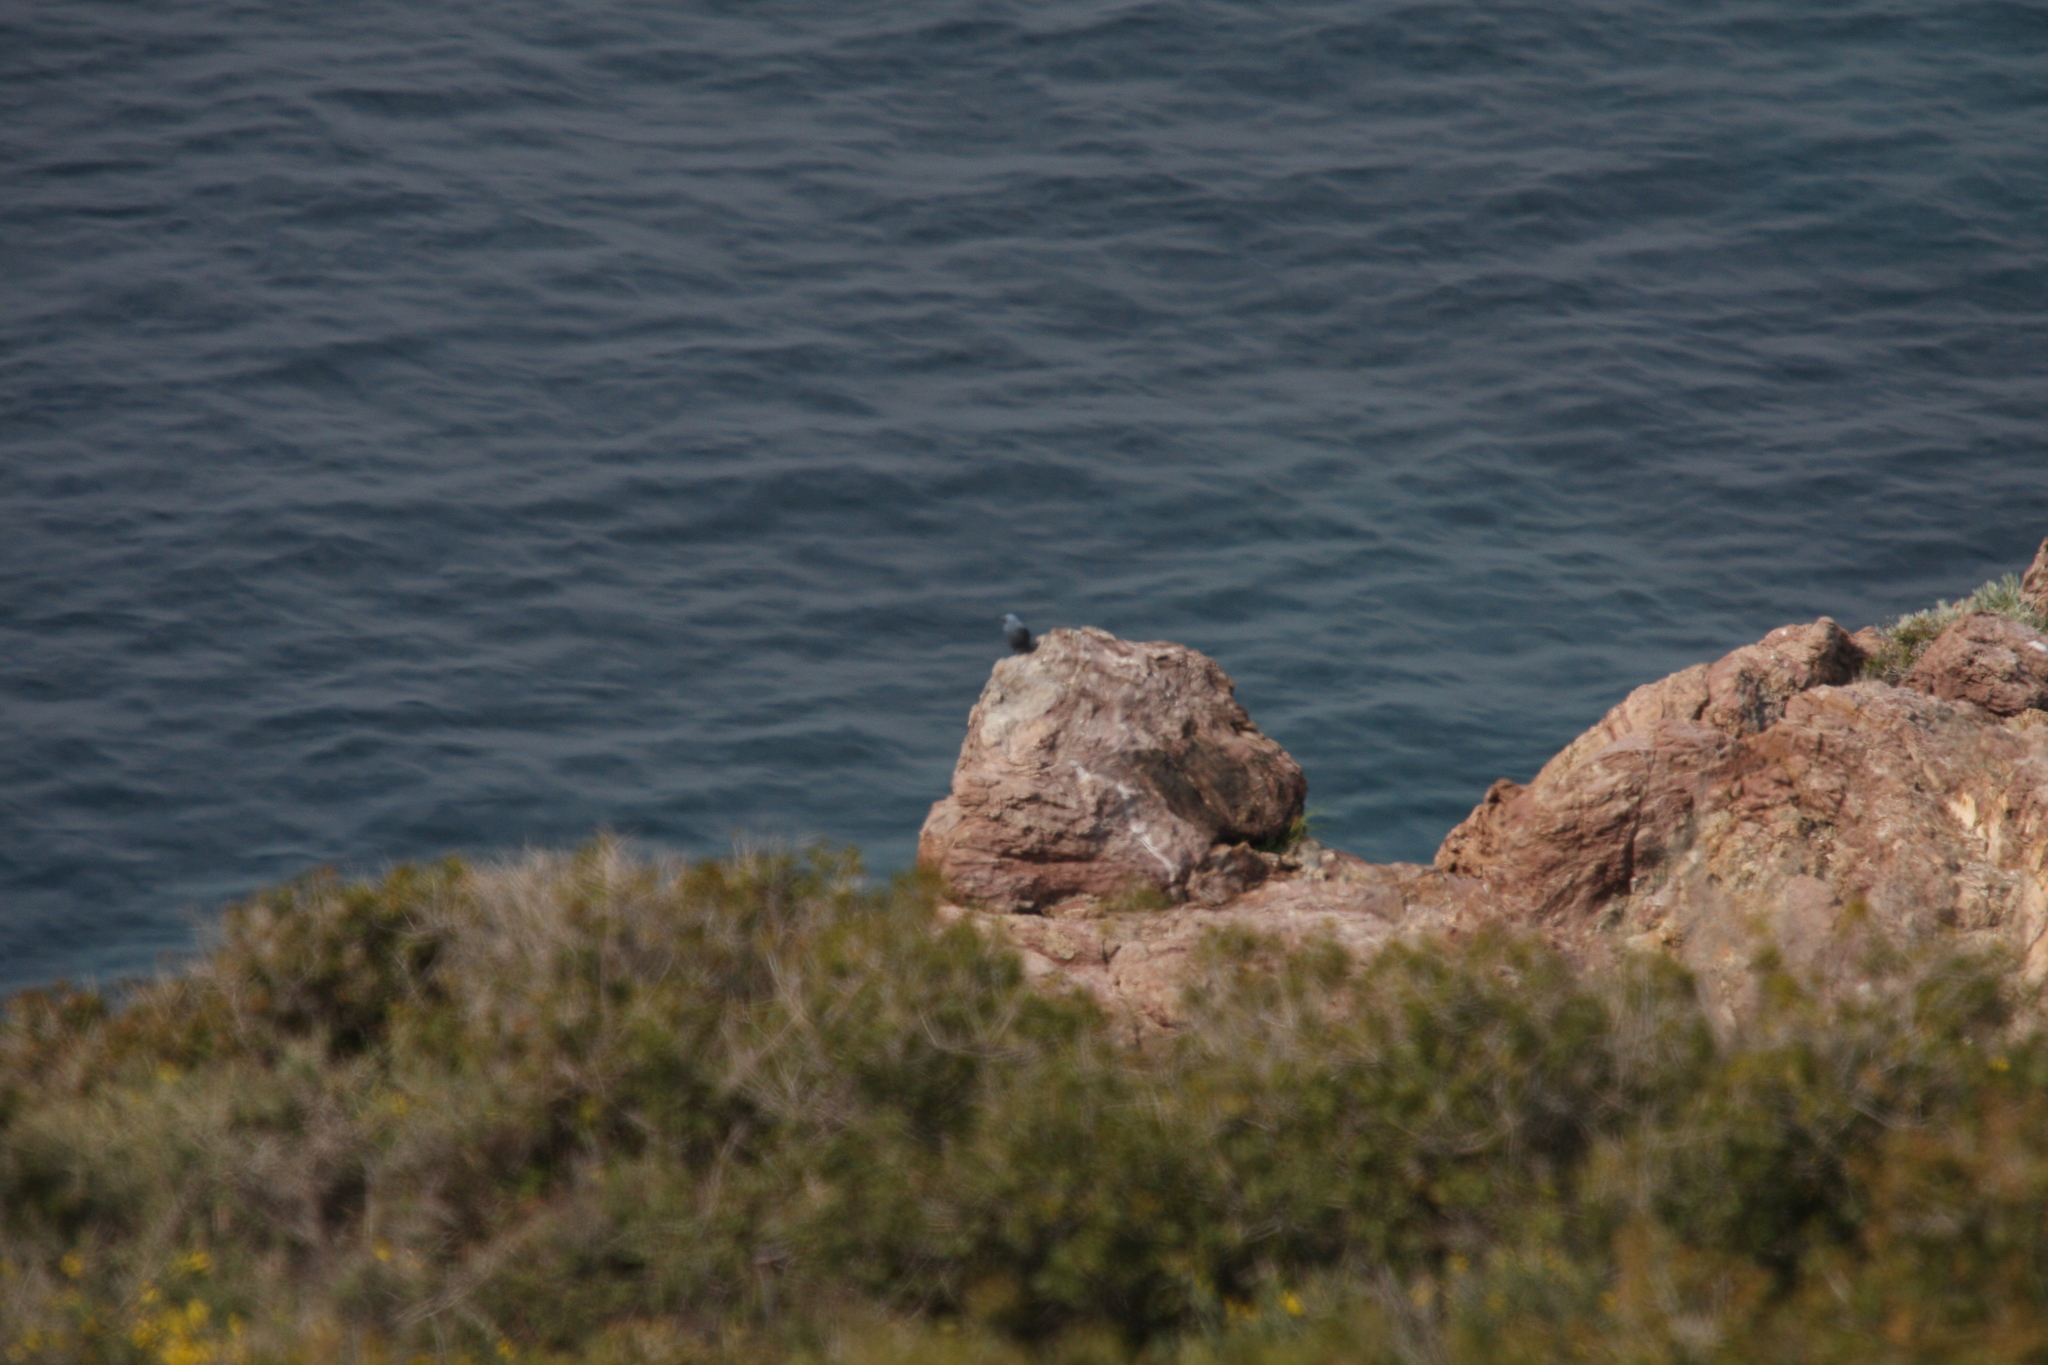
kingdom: Animalia
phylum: Chordata
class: Aves
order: Passeriformes
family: Muscicapidae
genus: Monticola
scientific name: Monticola solitarius
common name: Blue rock thrush
